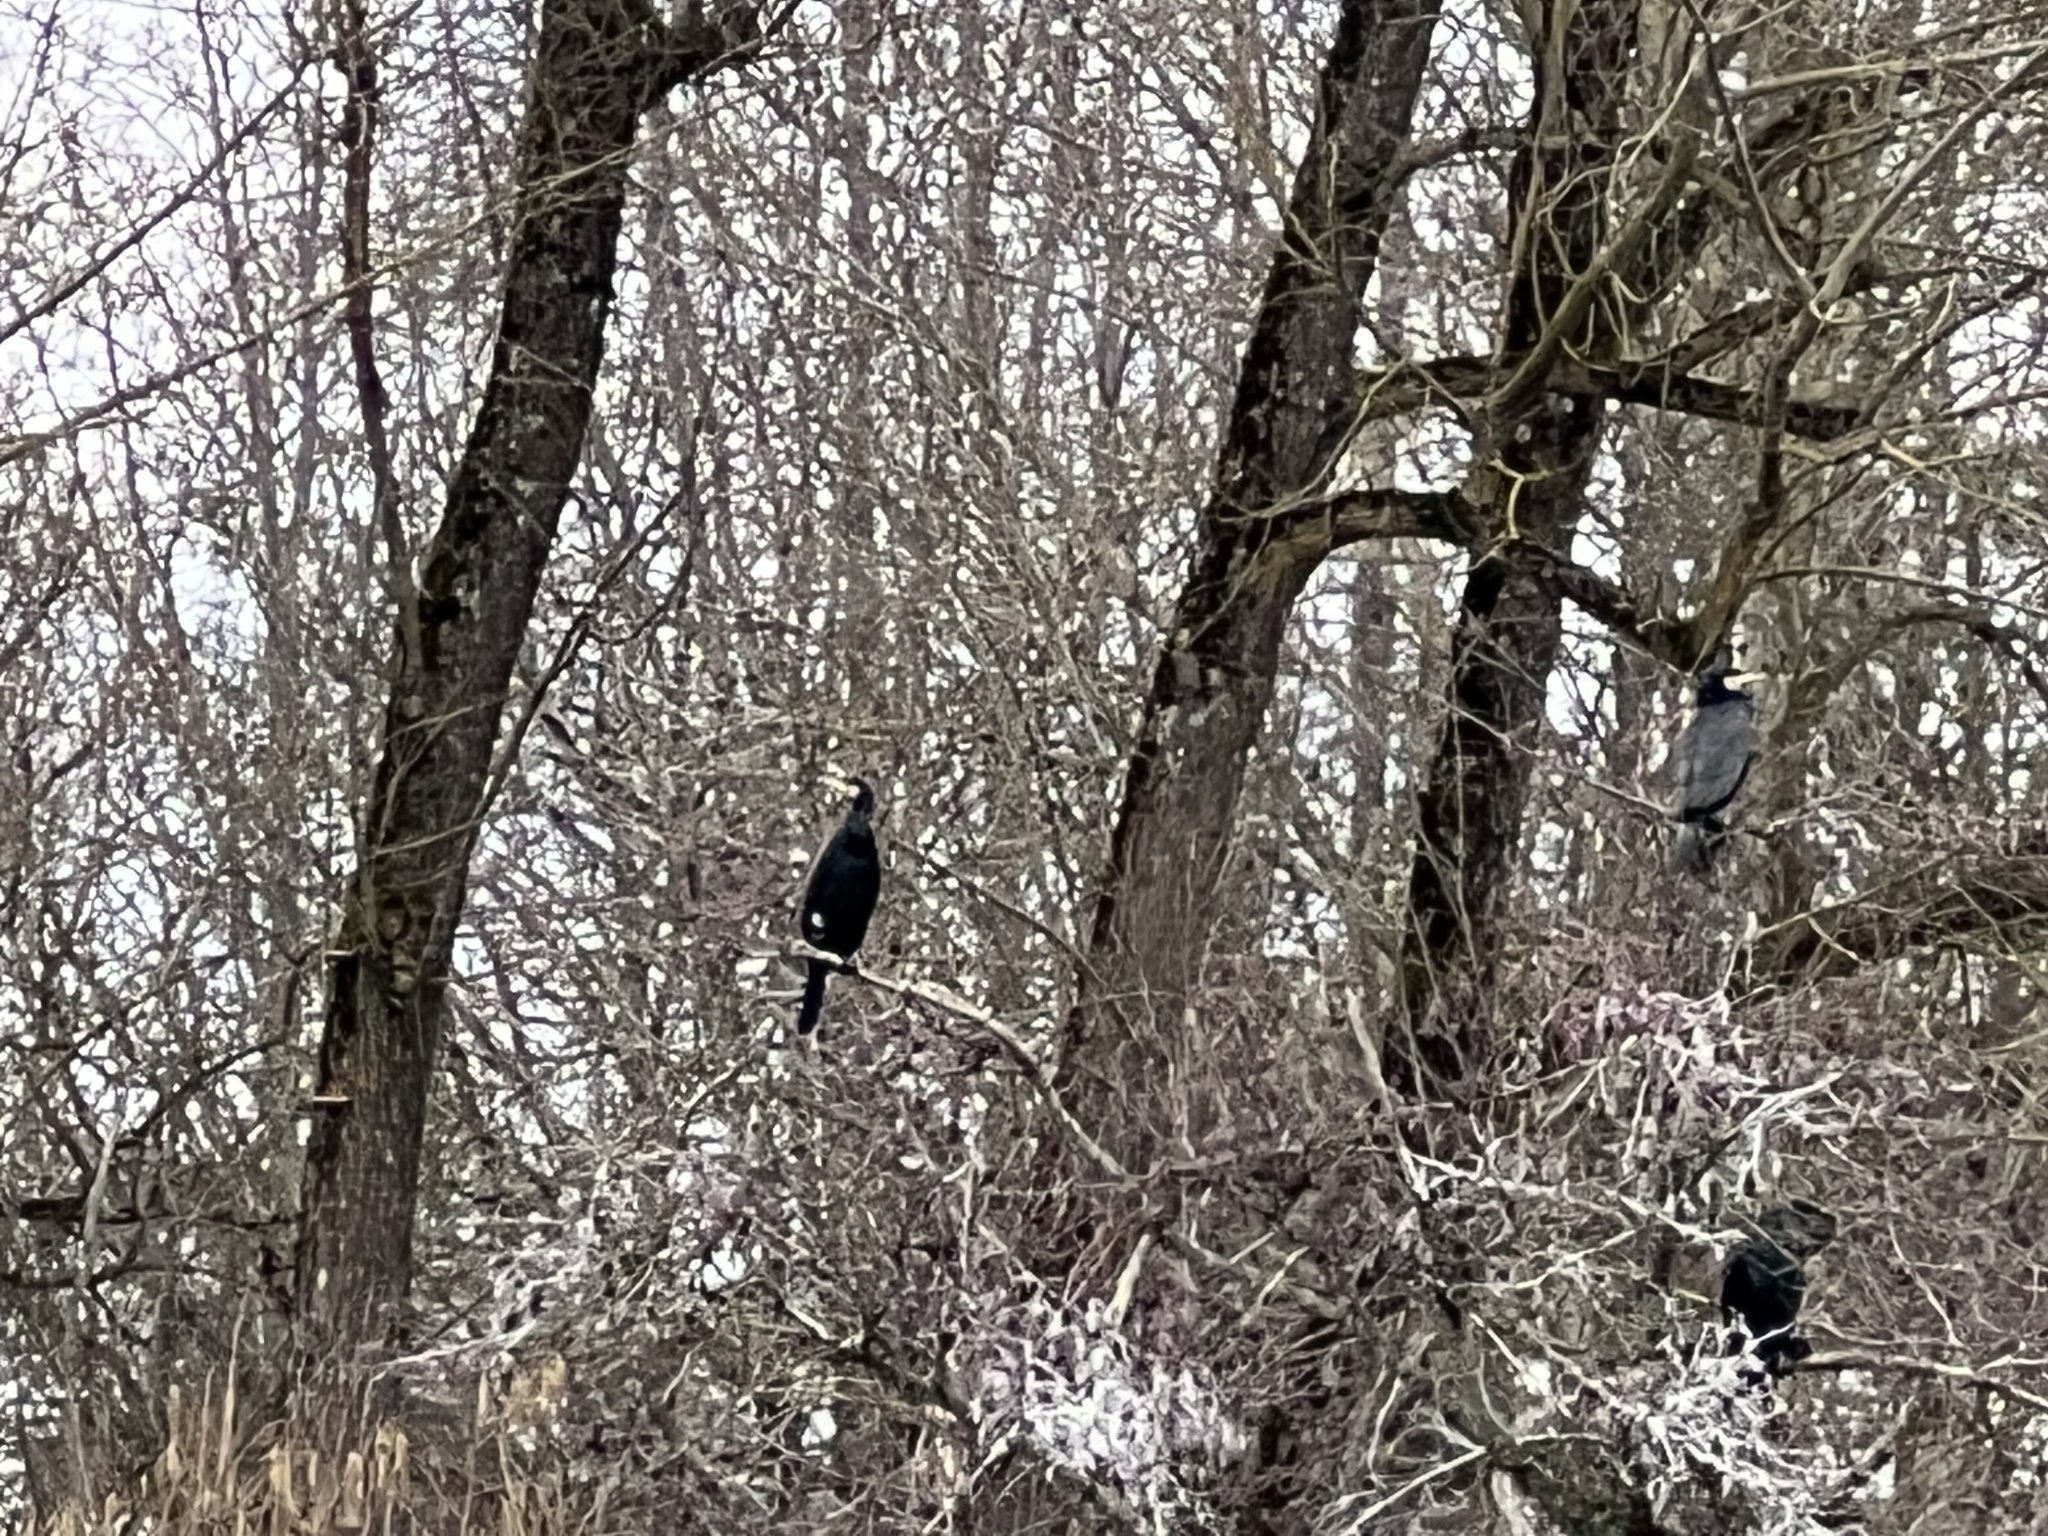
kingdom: Animalia
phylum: Chordata
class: Aves
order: Suliformes
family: Phalacrocoracidae
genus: Phalacrocorax
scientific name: Phalacrocorax carbo
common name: Great cormorant
